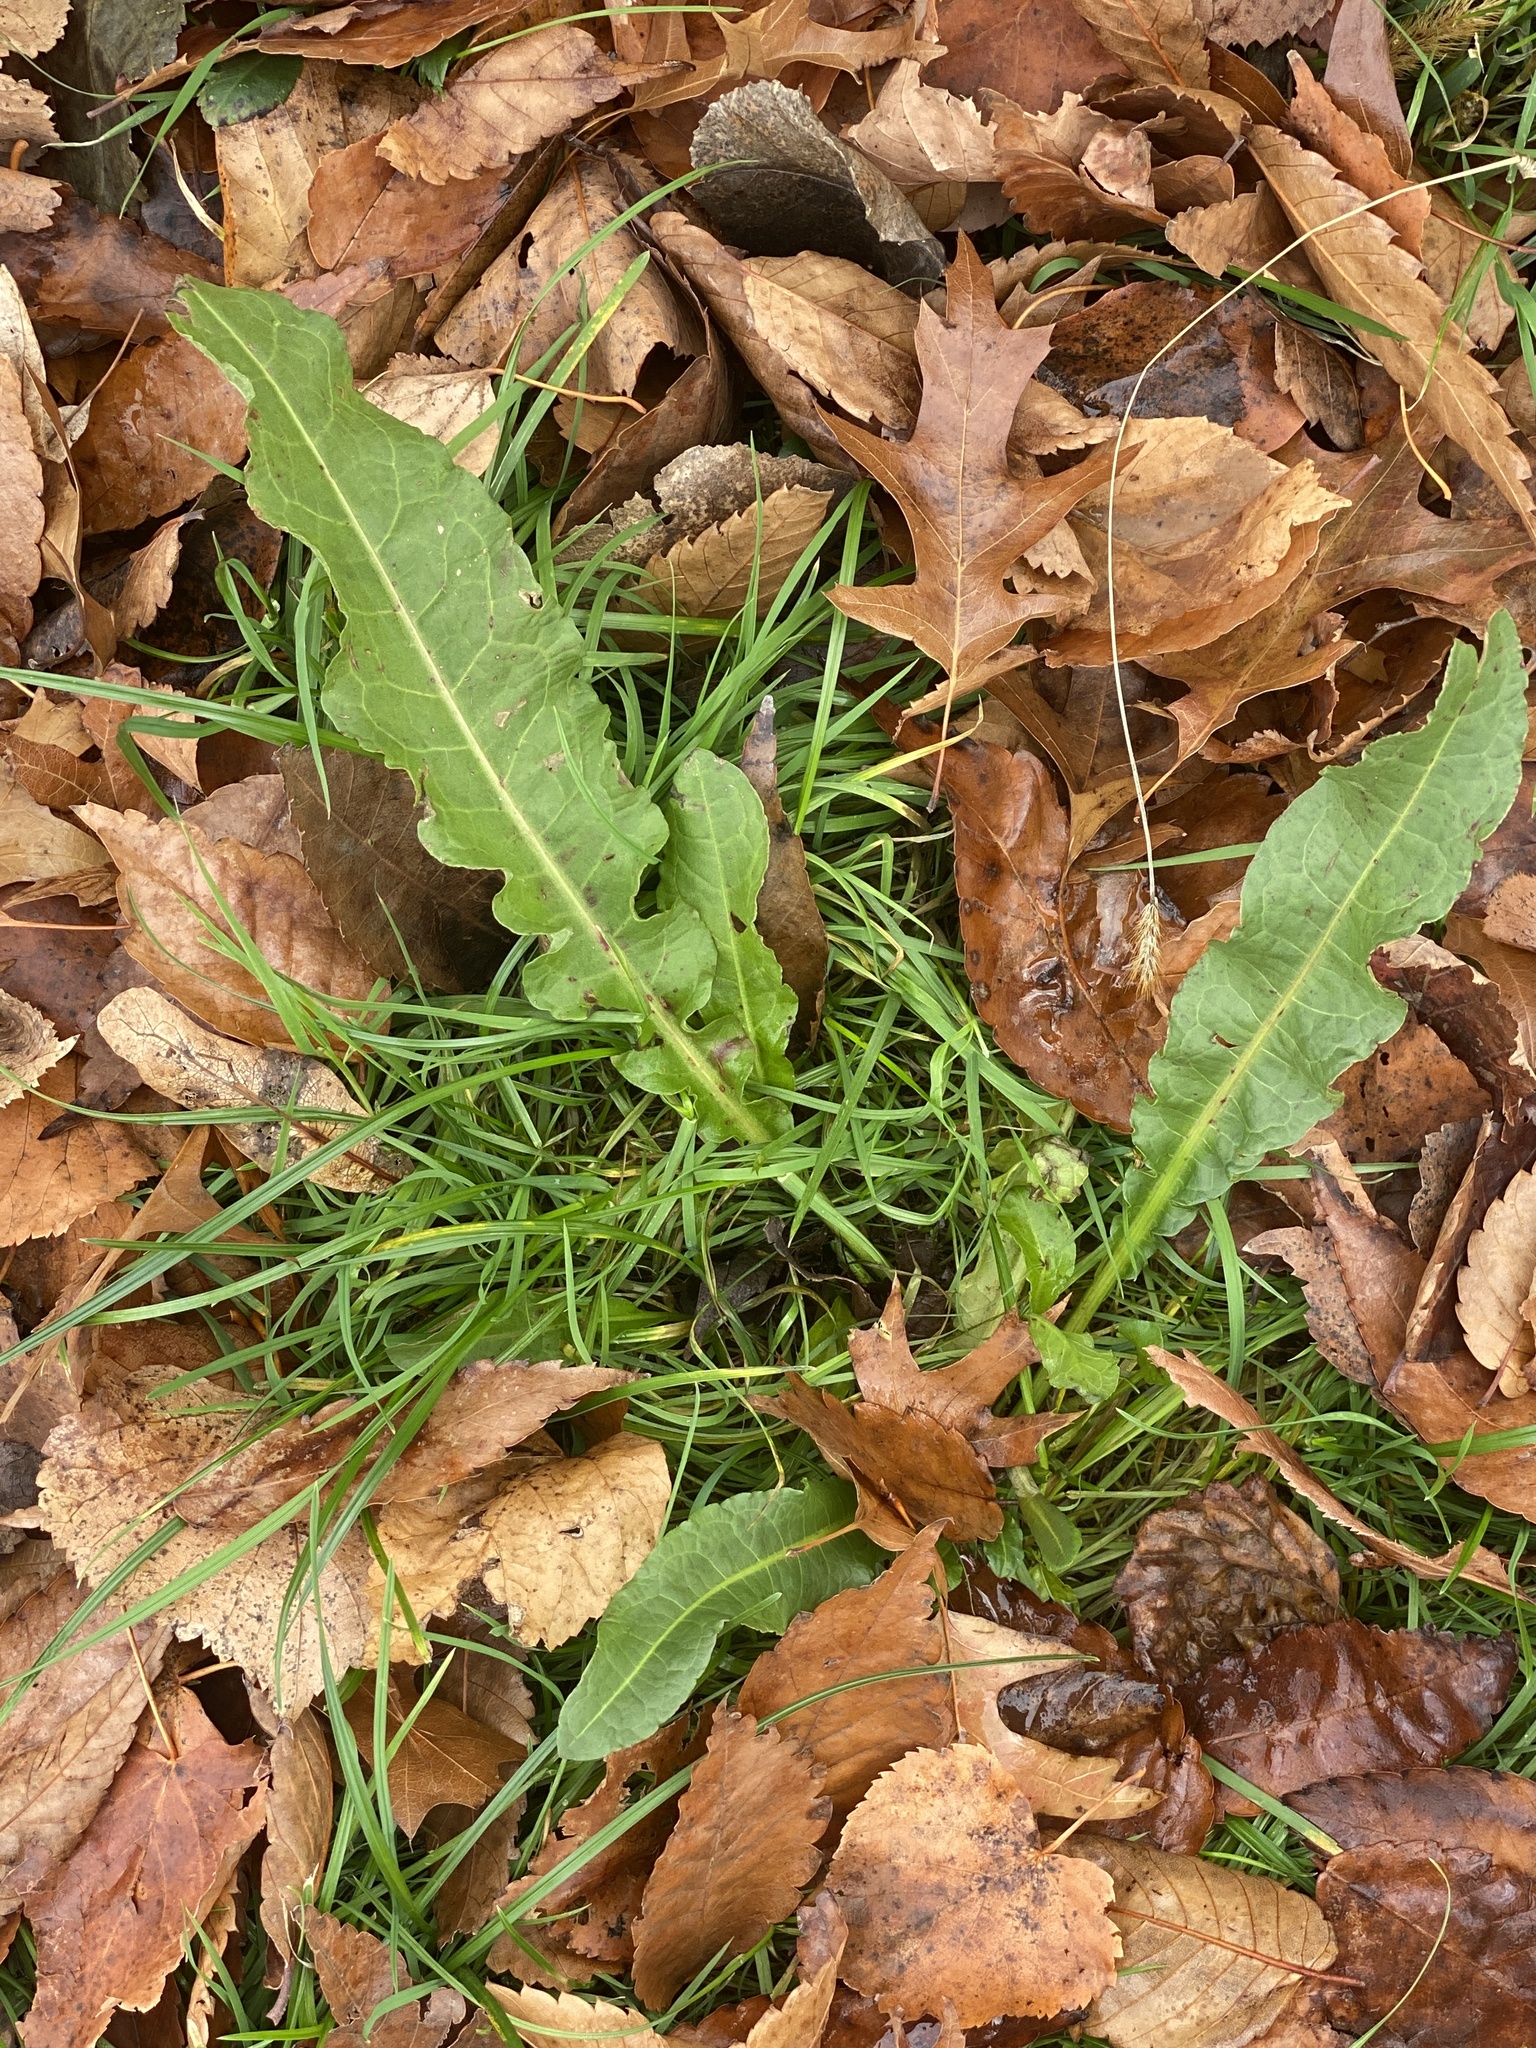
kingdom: Plantae
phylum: Tracheophyta
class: Magnoliopsida
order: Caryophyllales
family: Polygonaceae
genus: Rumex
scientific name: Rumex crispus
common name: Curled dock
